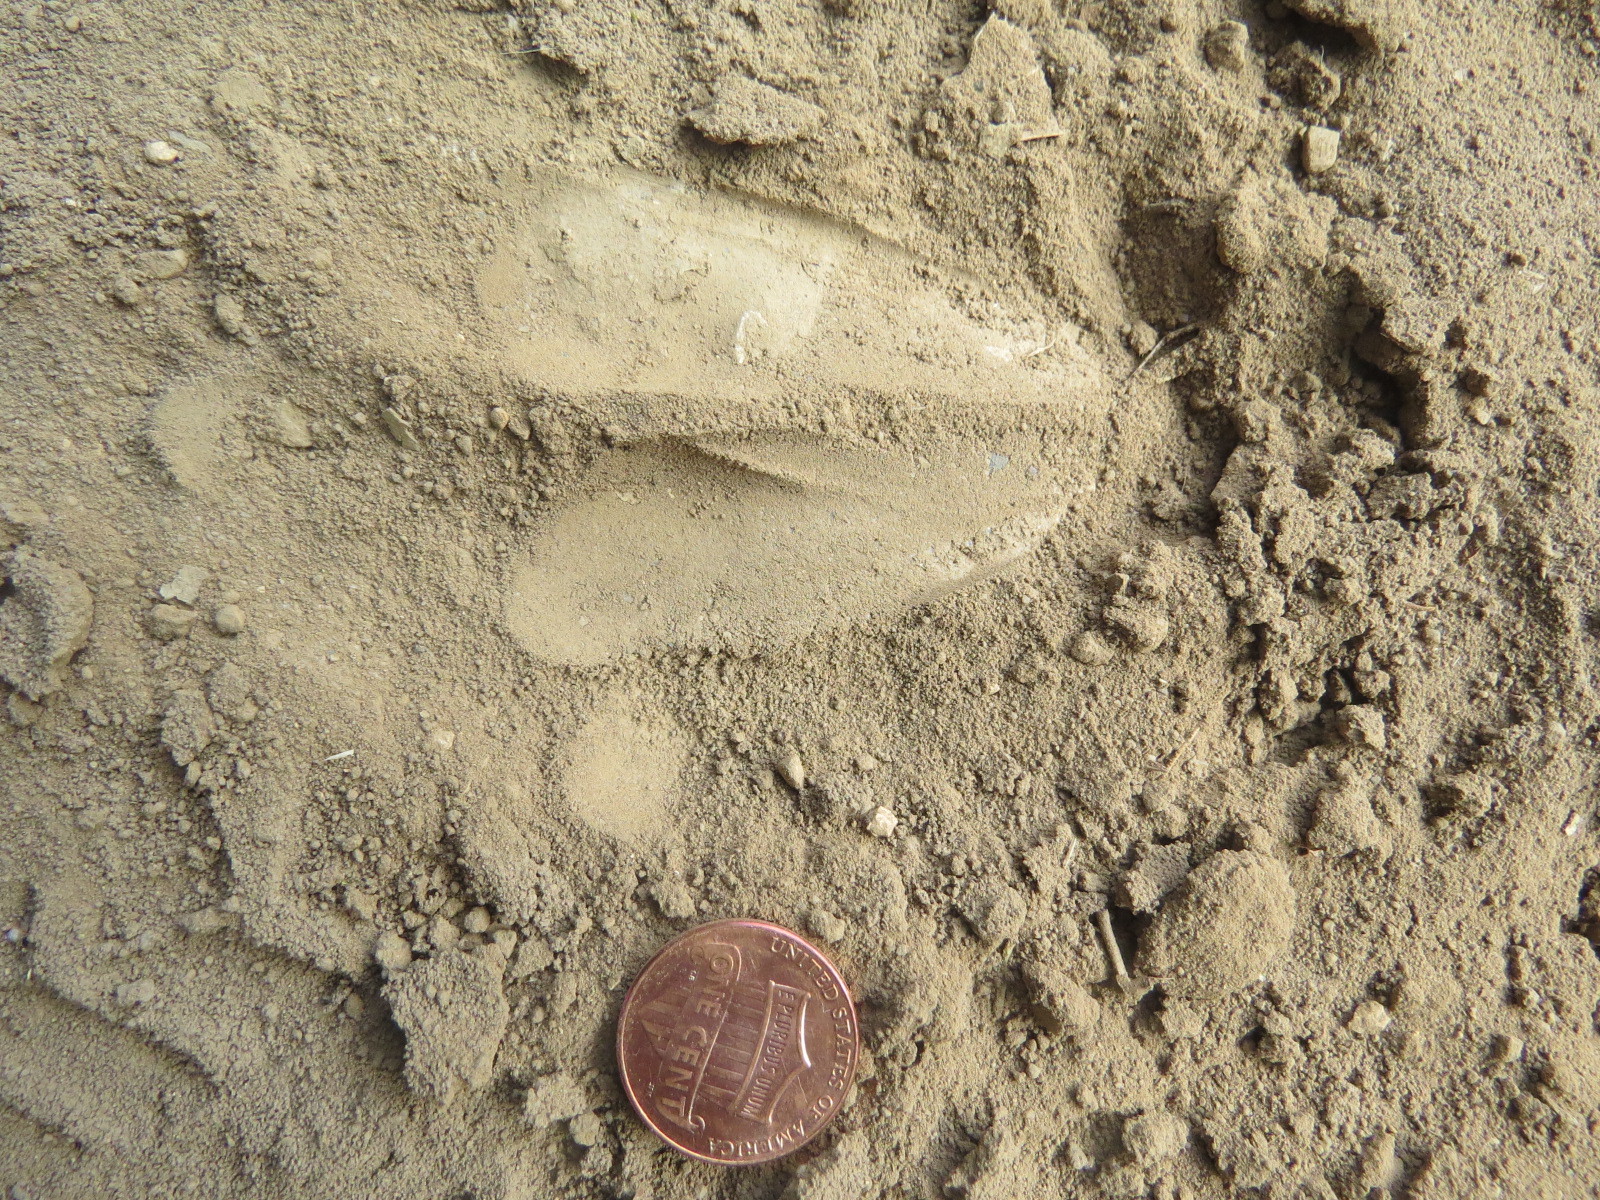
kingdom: Animalia
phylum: Chordata
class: Mammalia
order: Artiodactyla
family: Cervidae
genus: Odocoileus
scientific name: Odocoileus hemionus
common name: Mule deer
